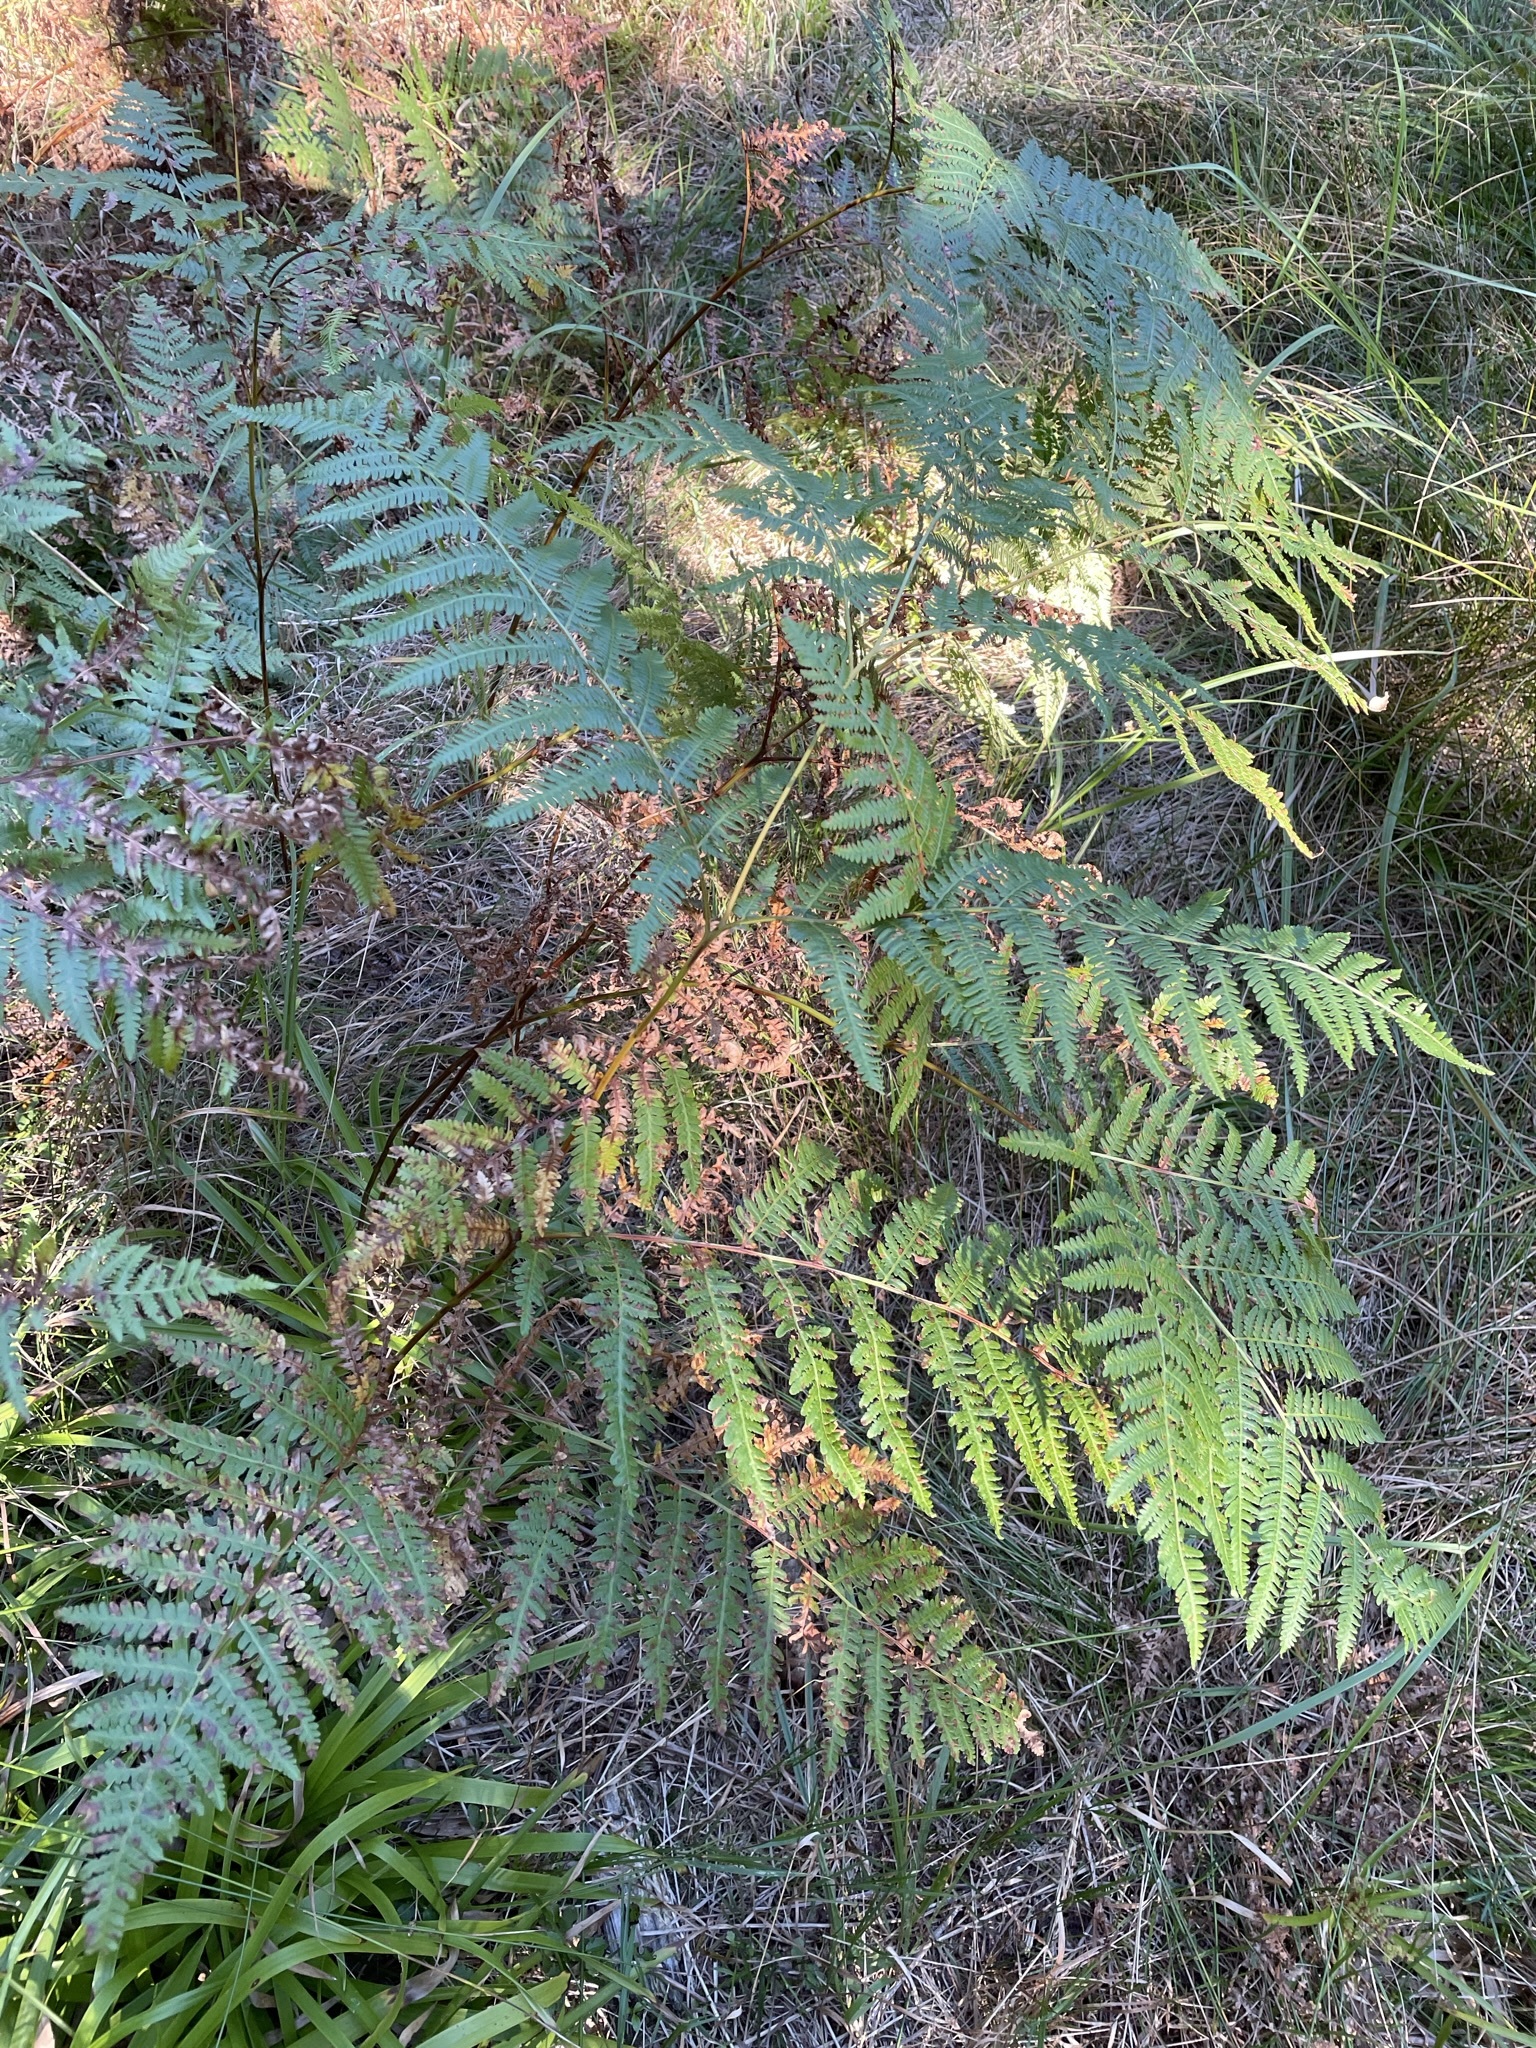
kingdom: Plantae
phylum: Tracheophyta
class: Polypodiopsida
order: Polypodiales
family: Dennstaedtiaceae
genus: Pteridium
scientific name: Pteridium aquilinum
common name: Bracken
